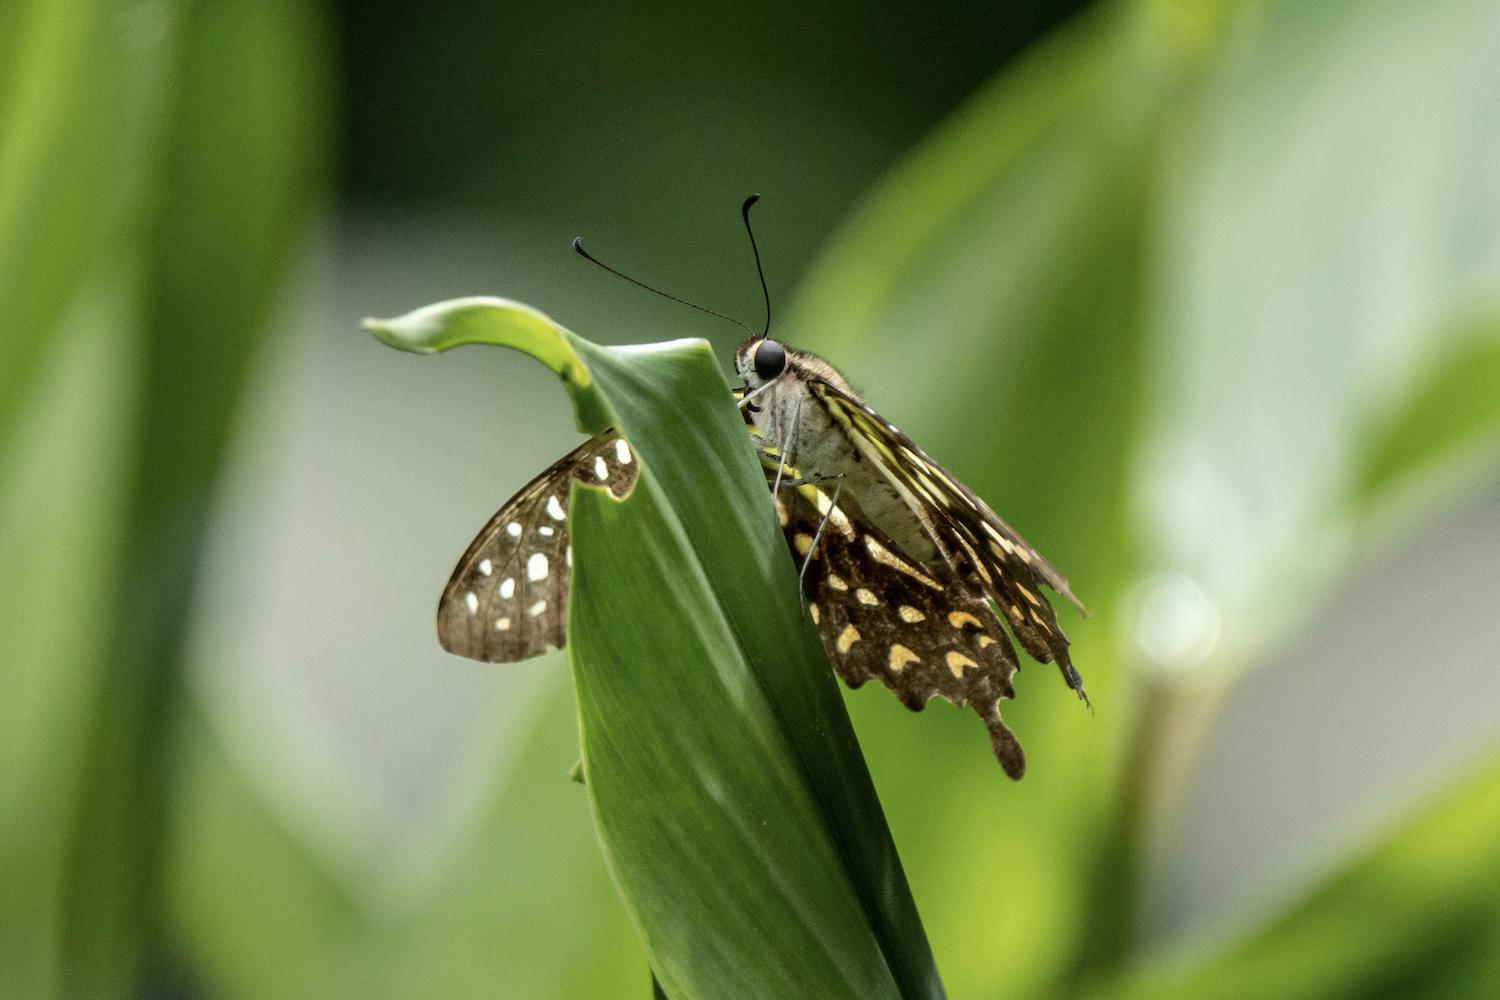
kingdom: Animalia
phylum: Arthropoda
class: Insecta
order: Lepidoptera
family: Papilionidae
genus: Graphium
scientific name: Graphium agamemnon
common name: Tailed jay
